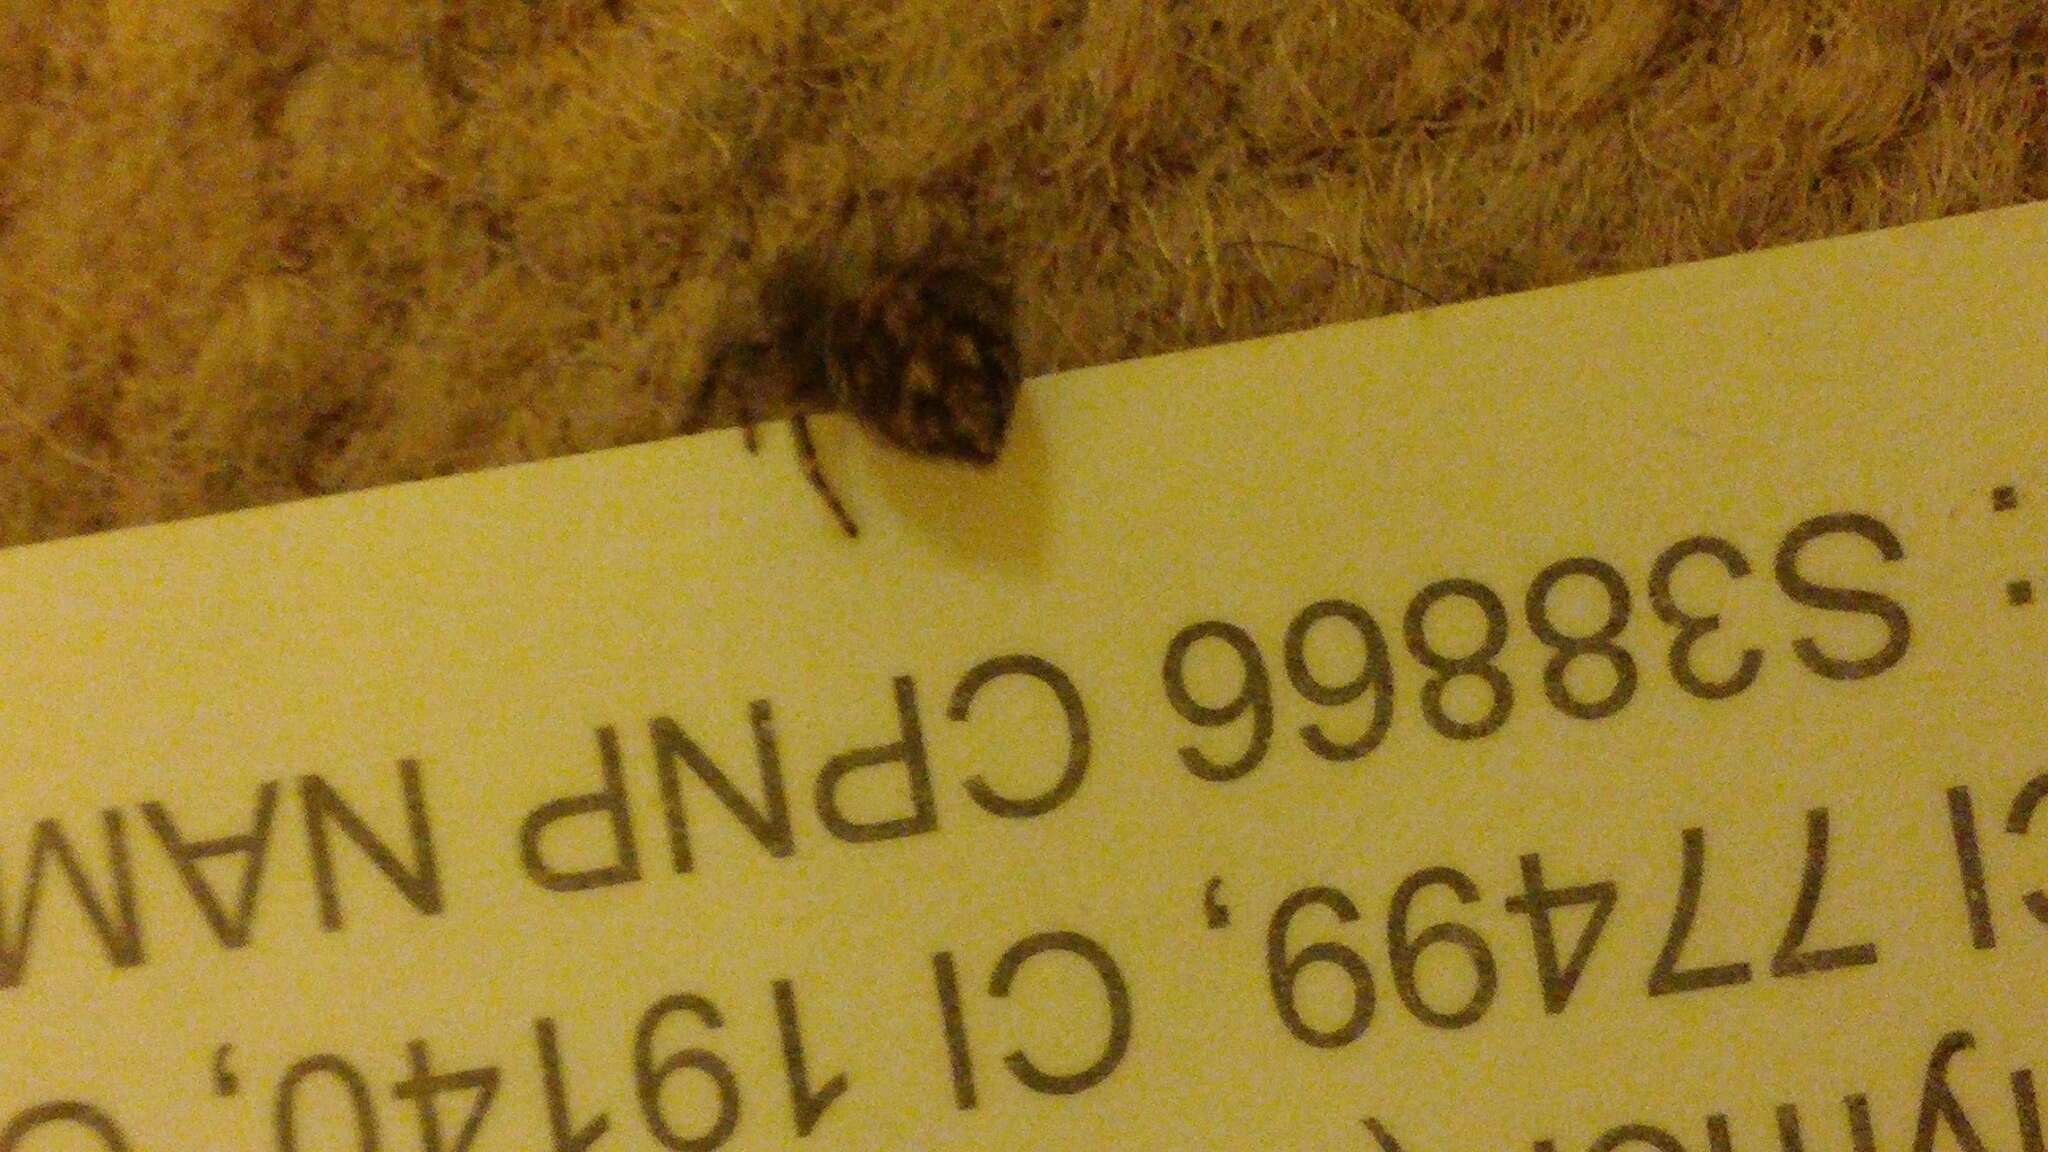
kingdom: Animalia
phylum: Arthropoda
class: Arachnida
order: Araneae
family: Salticidae
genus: Pseudeuophrys
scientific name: Pseudeuophrys lanigera
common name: Jumping spider
